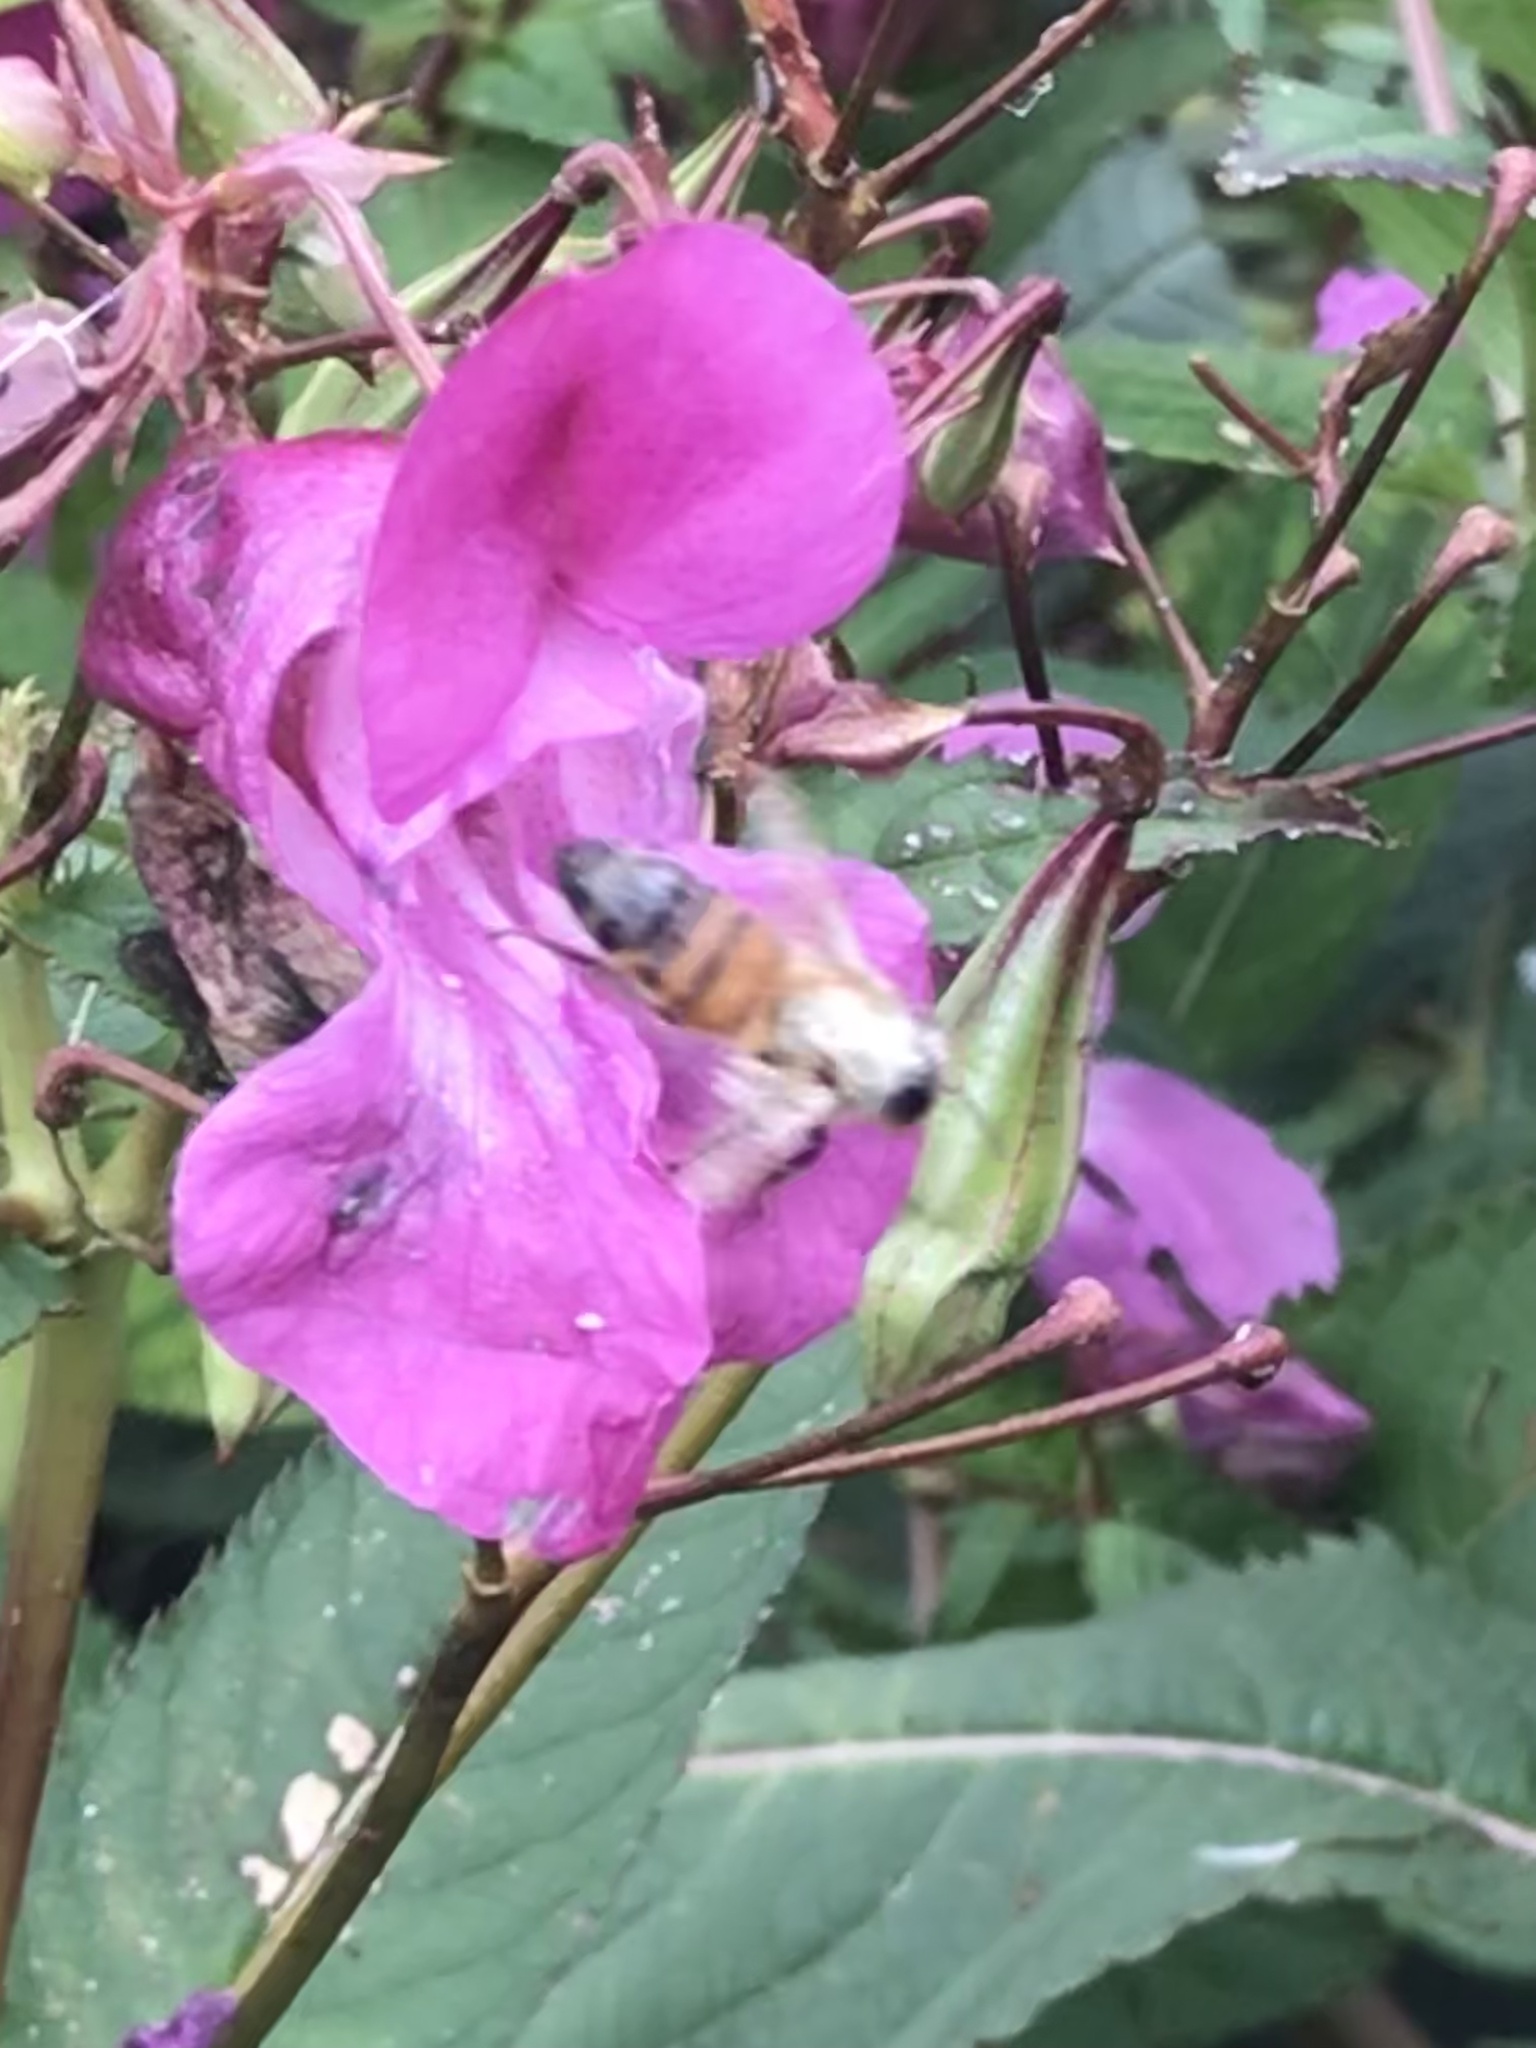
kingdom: Animalia
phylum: Arthropoda
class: Insecta
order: Hymenoptera
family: Apidae
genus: Apis
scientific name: Apis mellifera
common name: Honey bee
